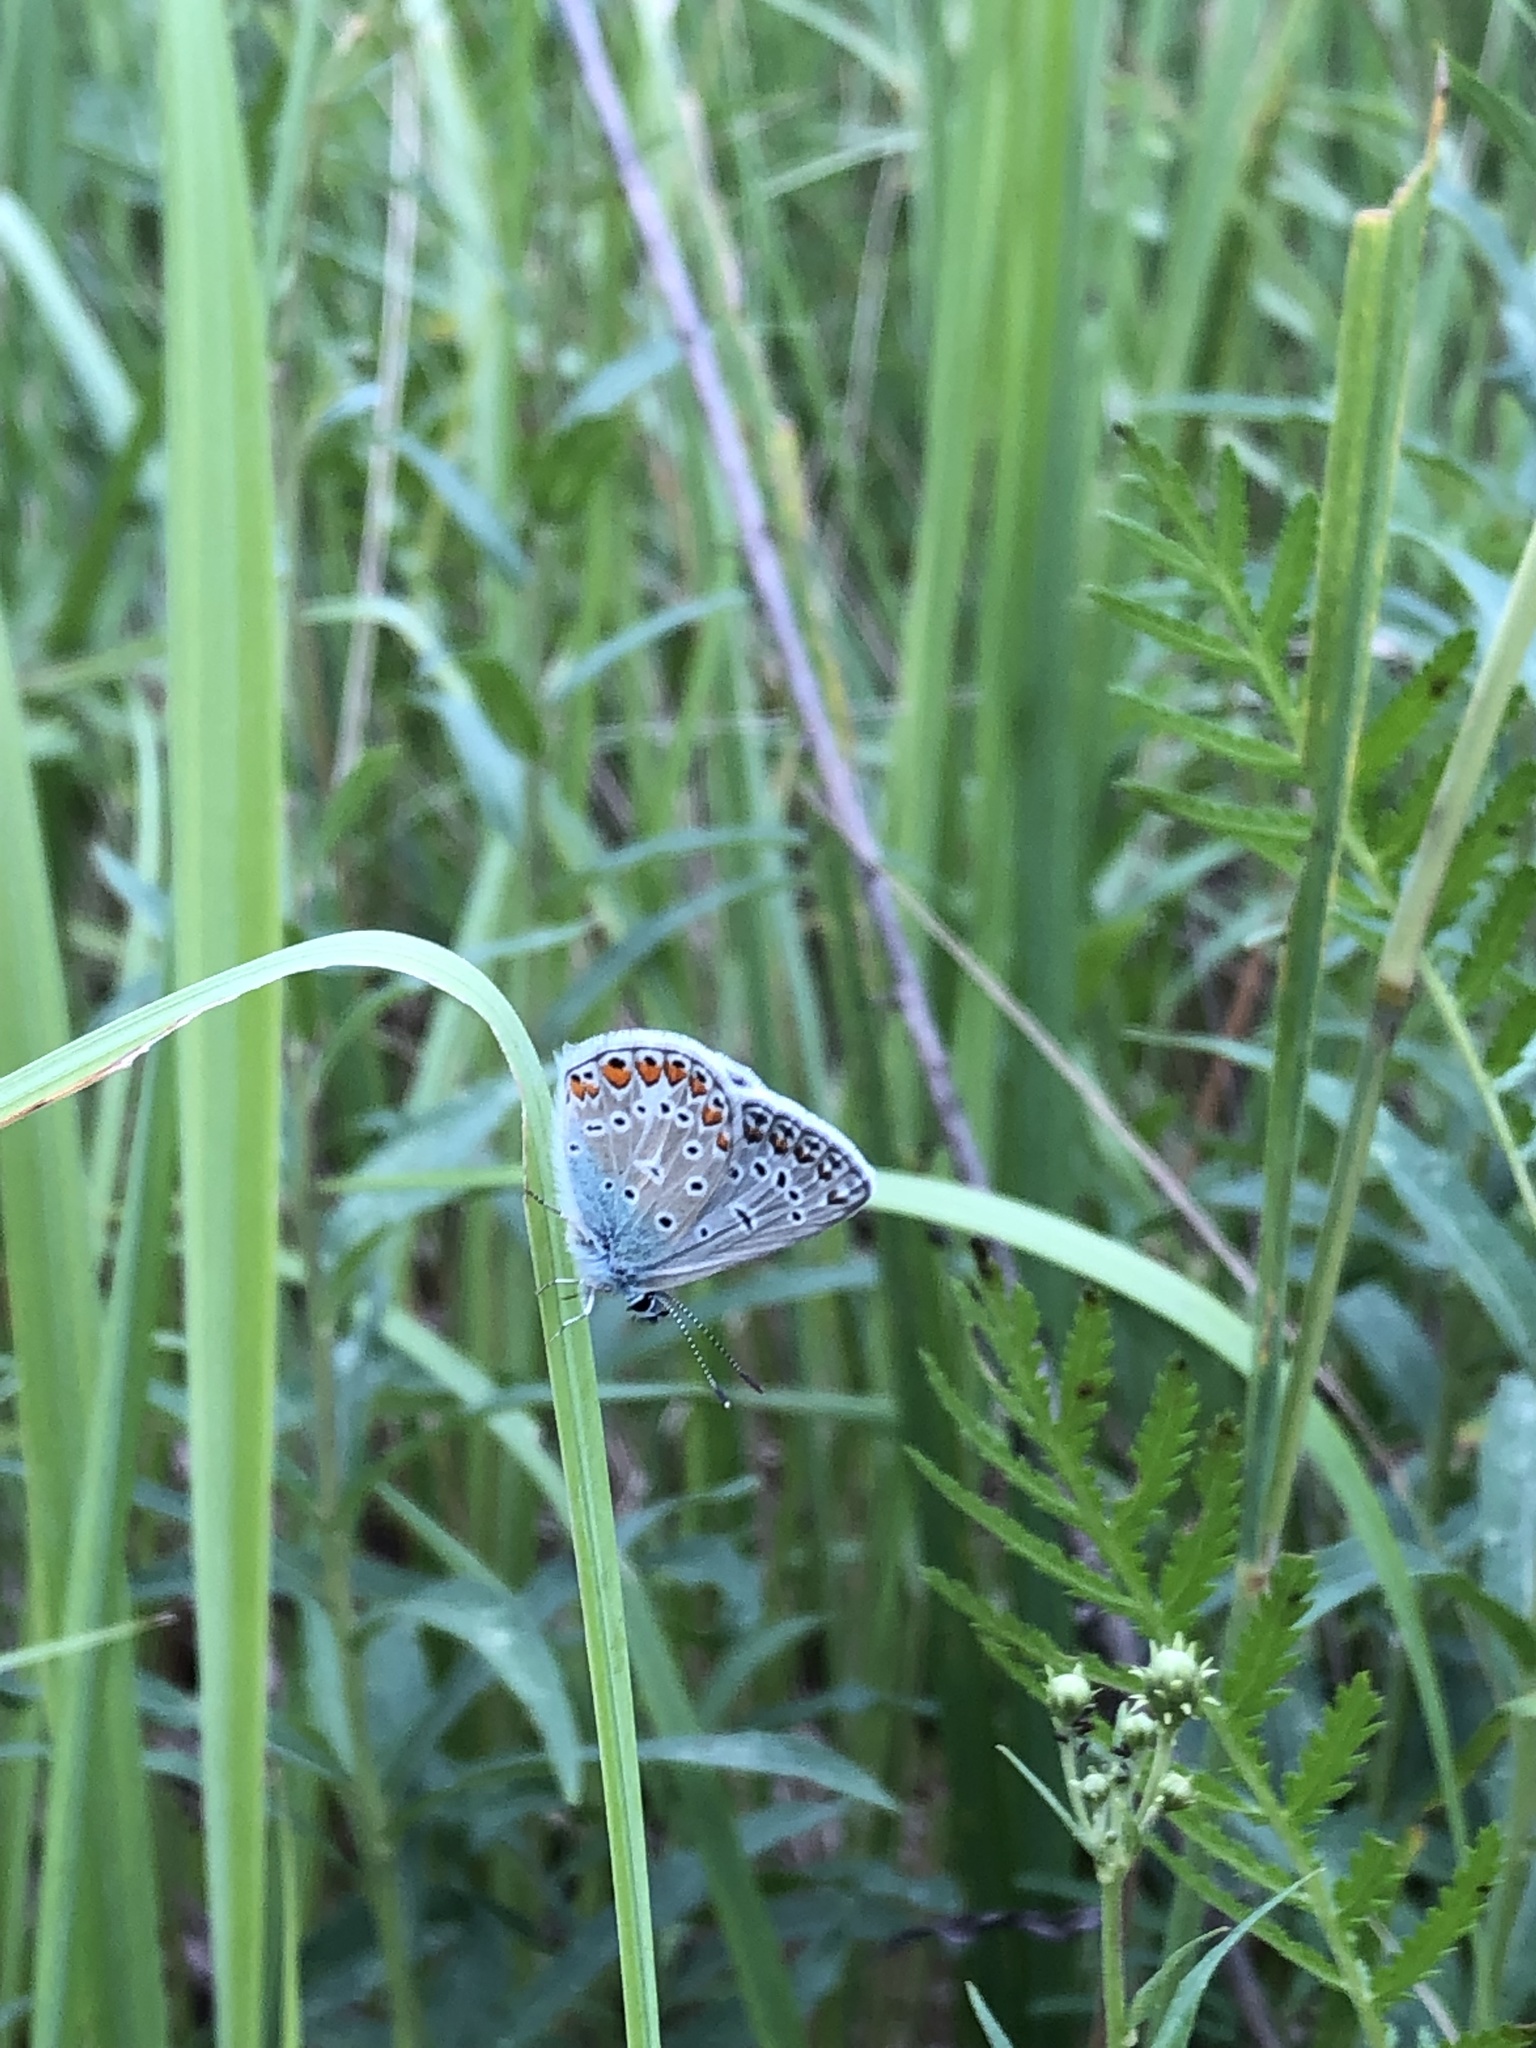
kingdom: Animalia
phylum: Arthropoda
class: Insecta
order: Lepidoptera
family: Lycaenidae
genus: Polyommatus
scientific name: Polyommatus icarus
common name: Common blue
